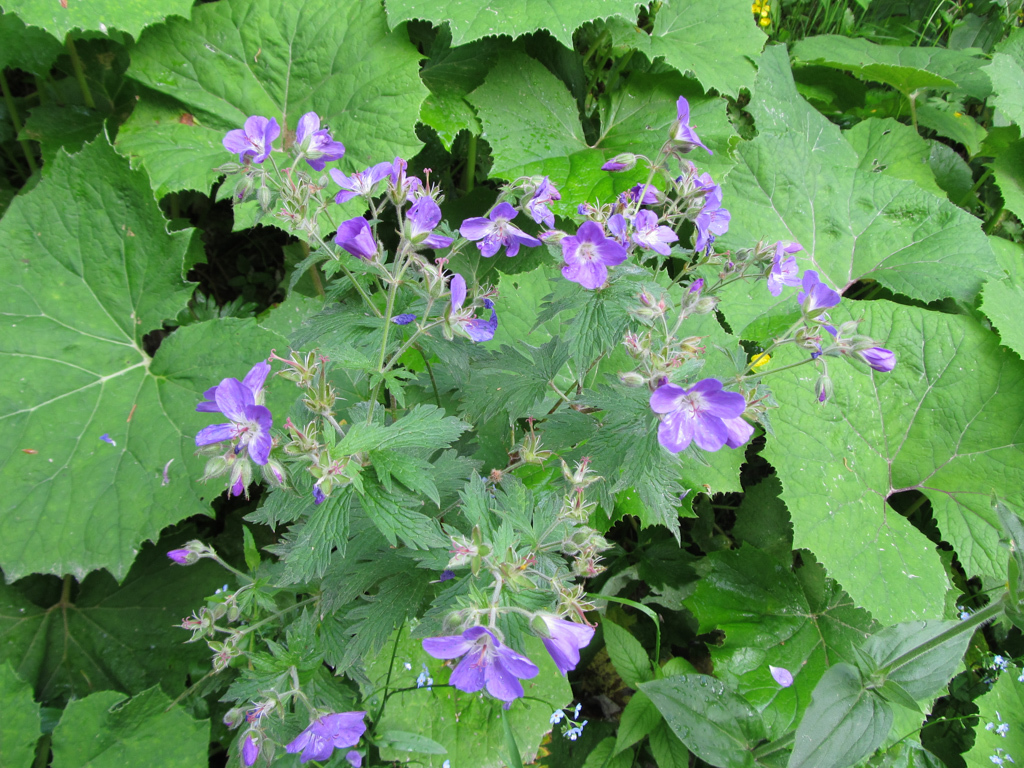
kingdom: Plantae
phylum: Tracheophyta
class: Magnoliopsida
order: Geraniales
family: Geraniaceae
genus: Geranium
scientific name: Geranium sylvaticum
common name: Wood crane's-bill
